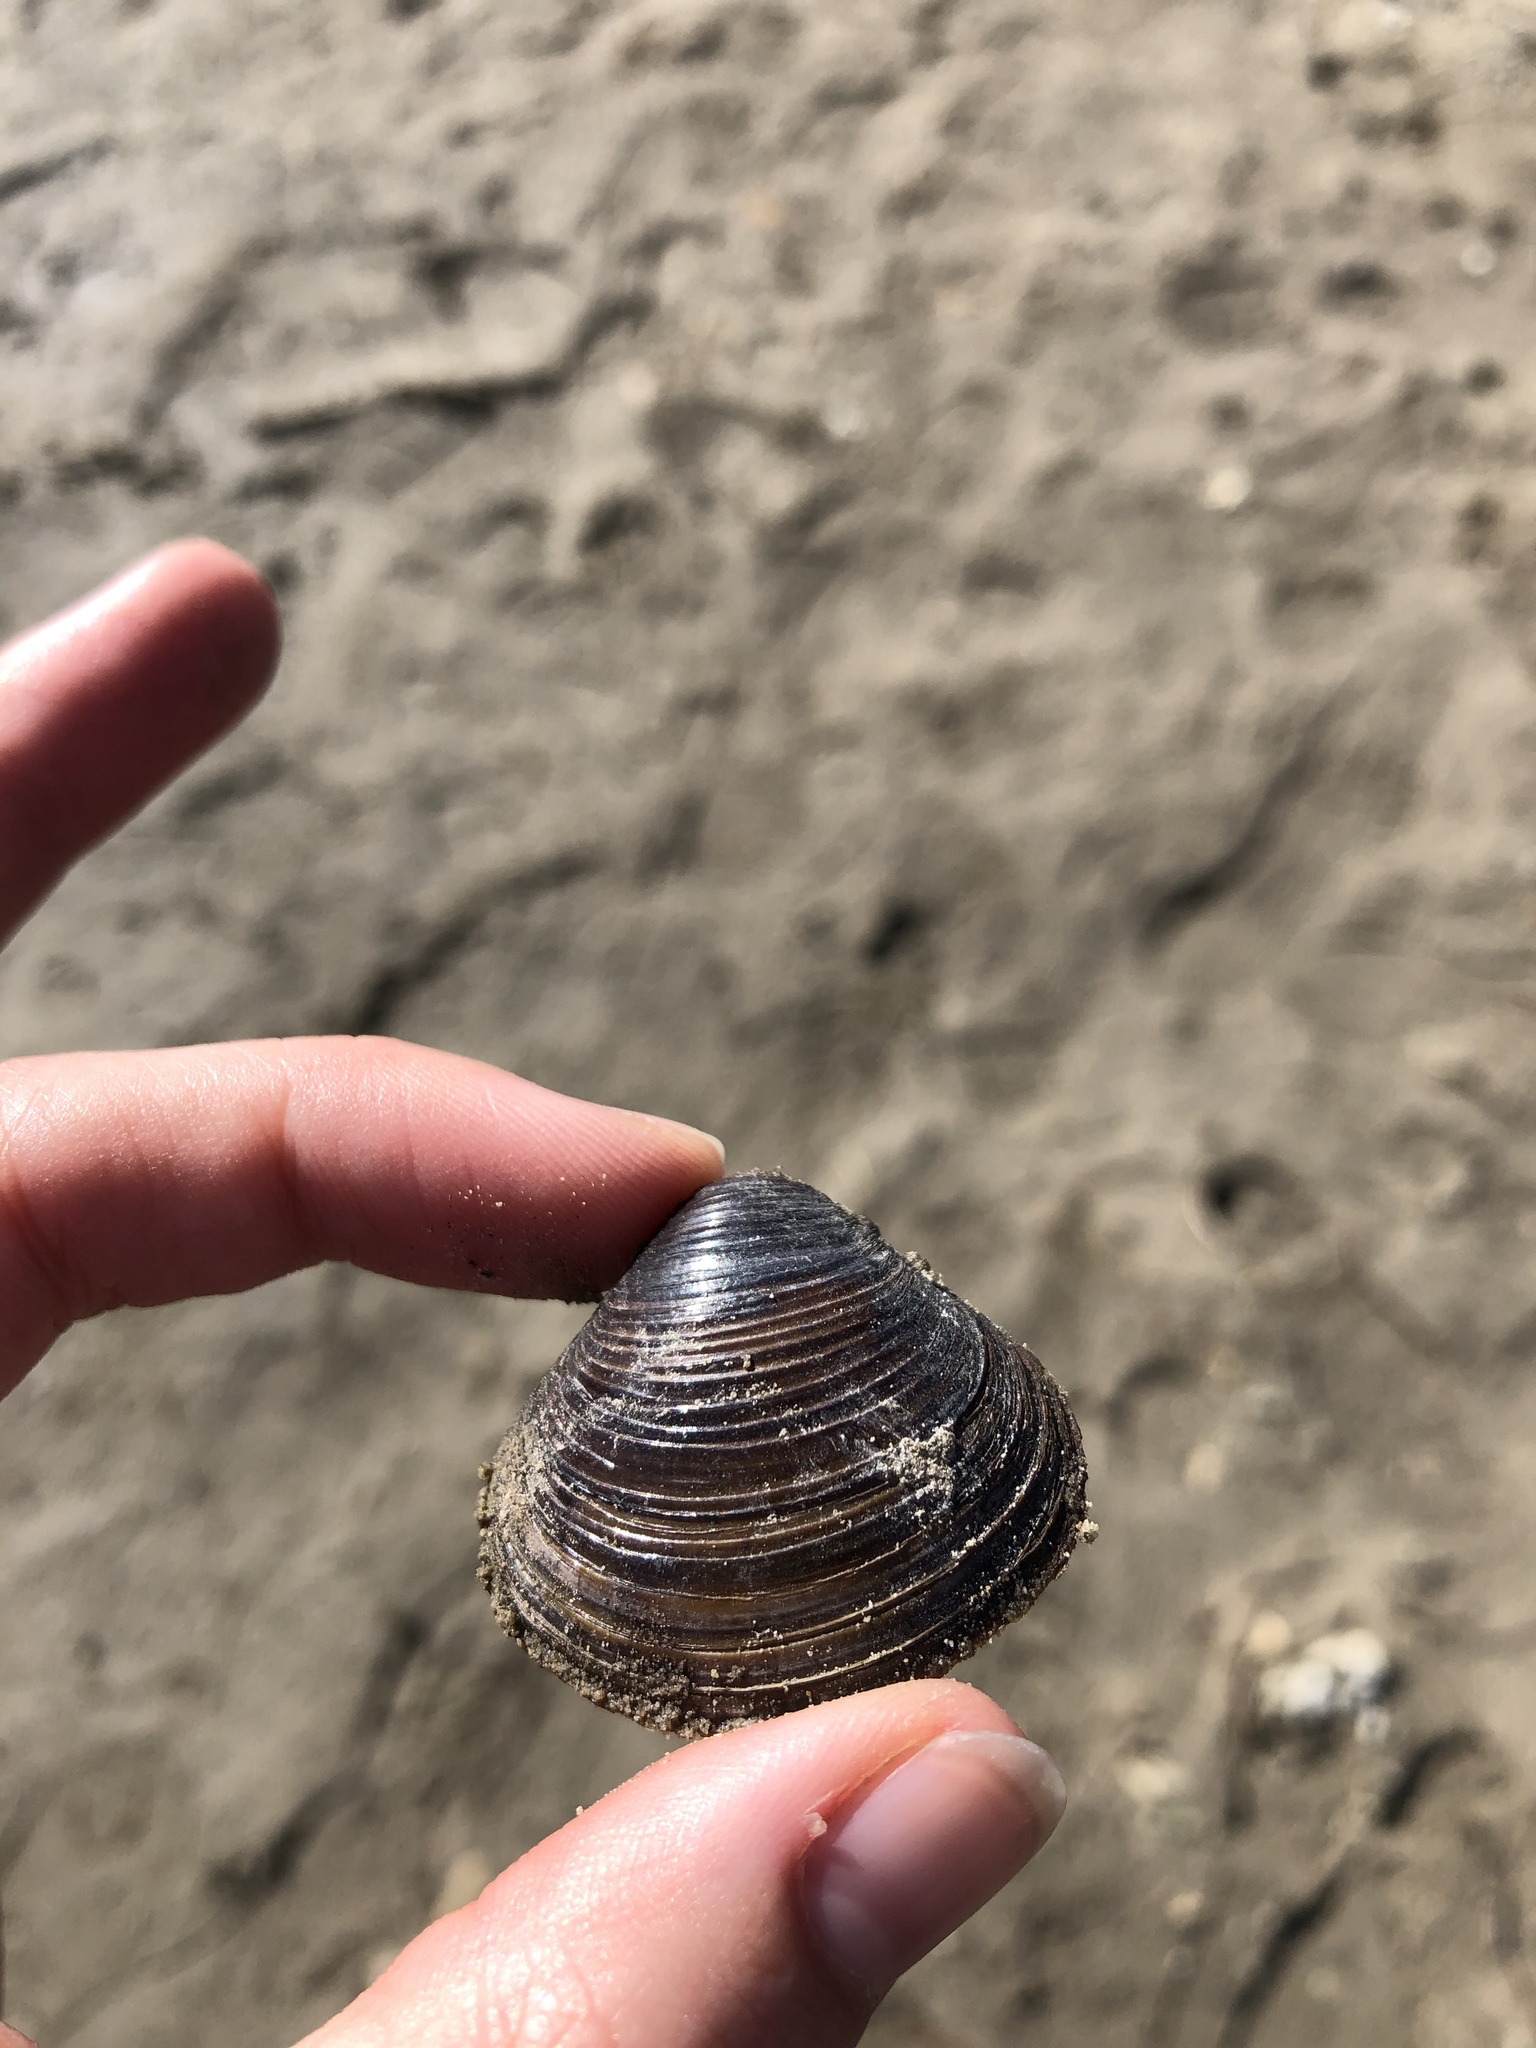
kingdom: Animalia
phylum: Mollusca
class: Bivalvia
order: Venerida
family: Cyrenidae
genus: Corbicula
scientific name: Corbicula fluminea
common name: Asian clam
